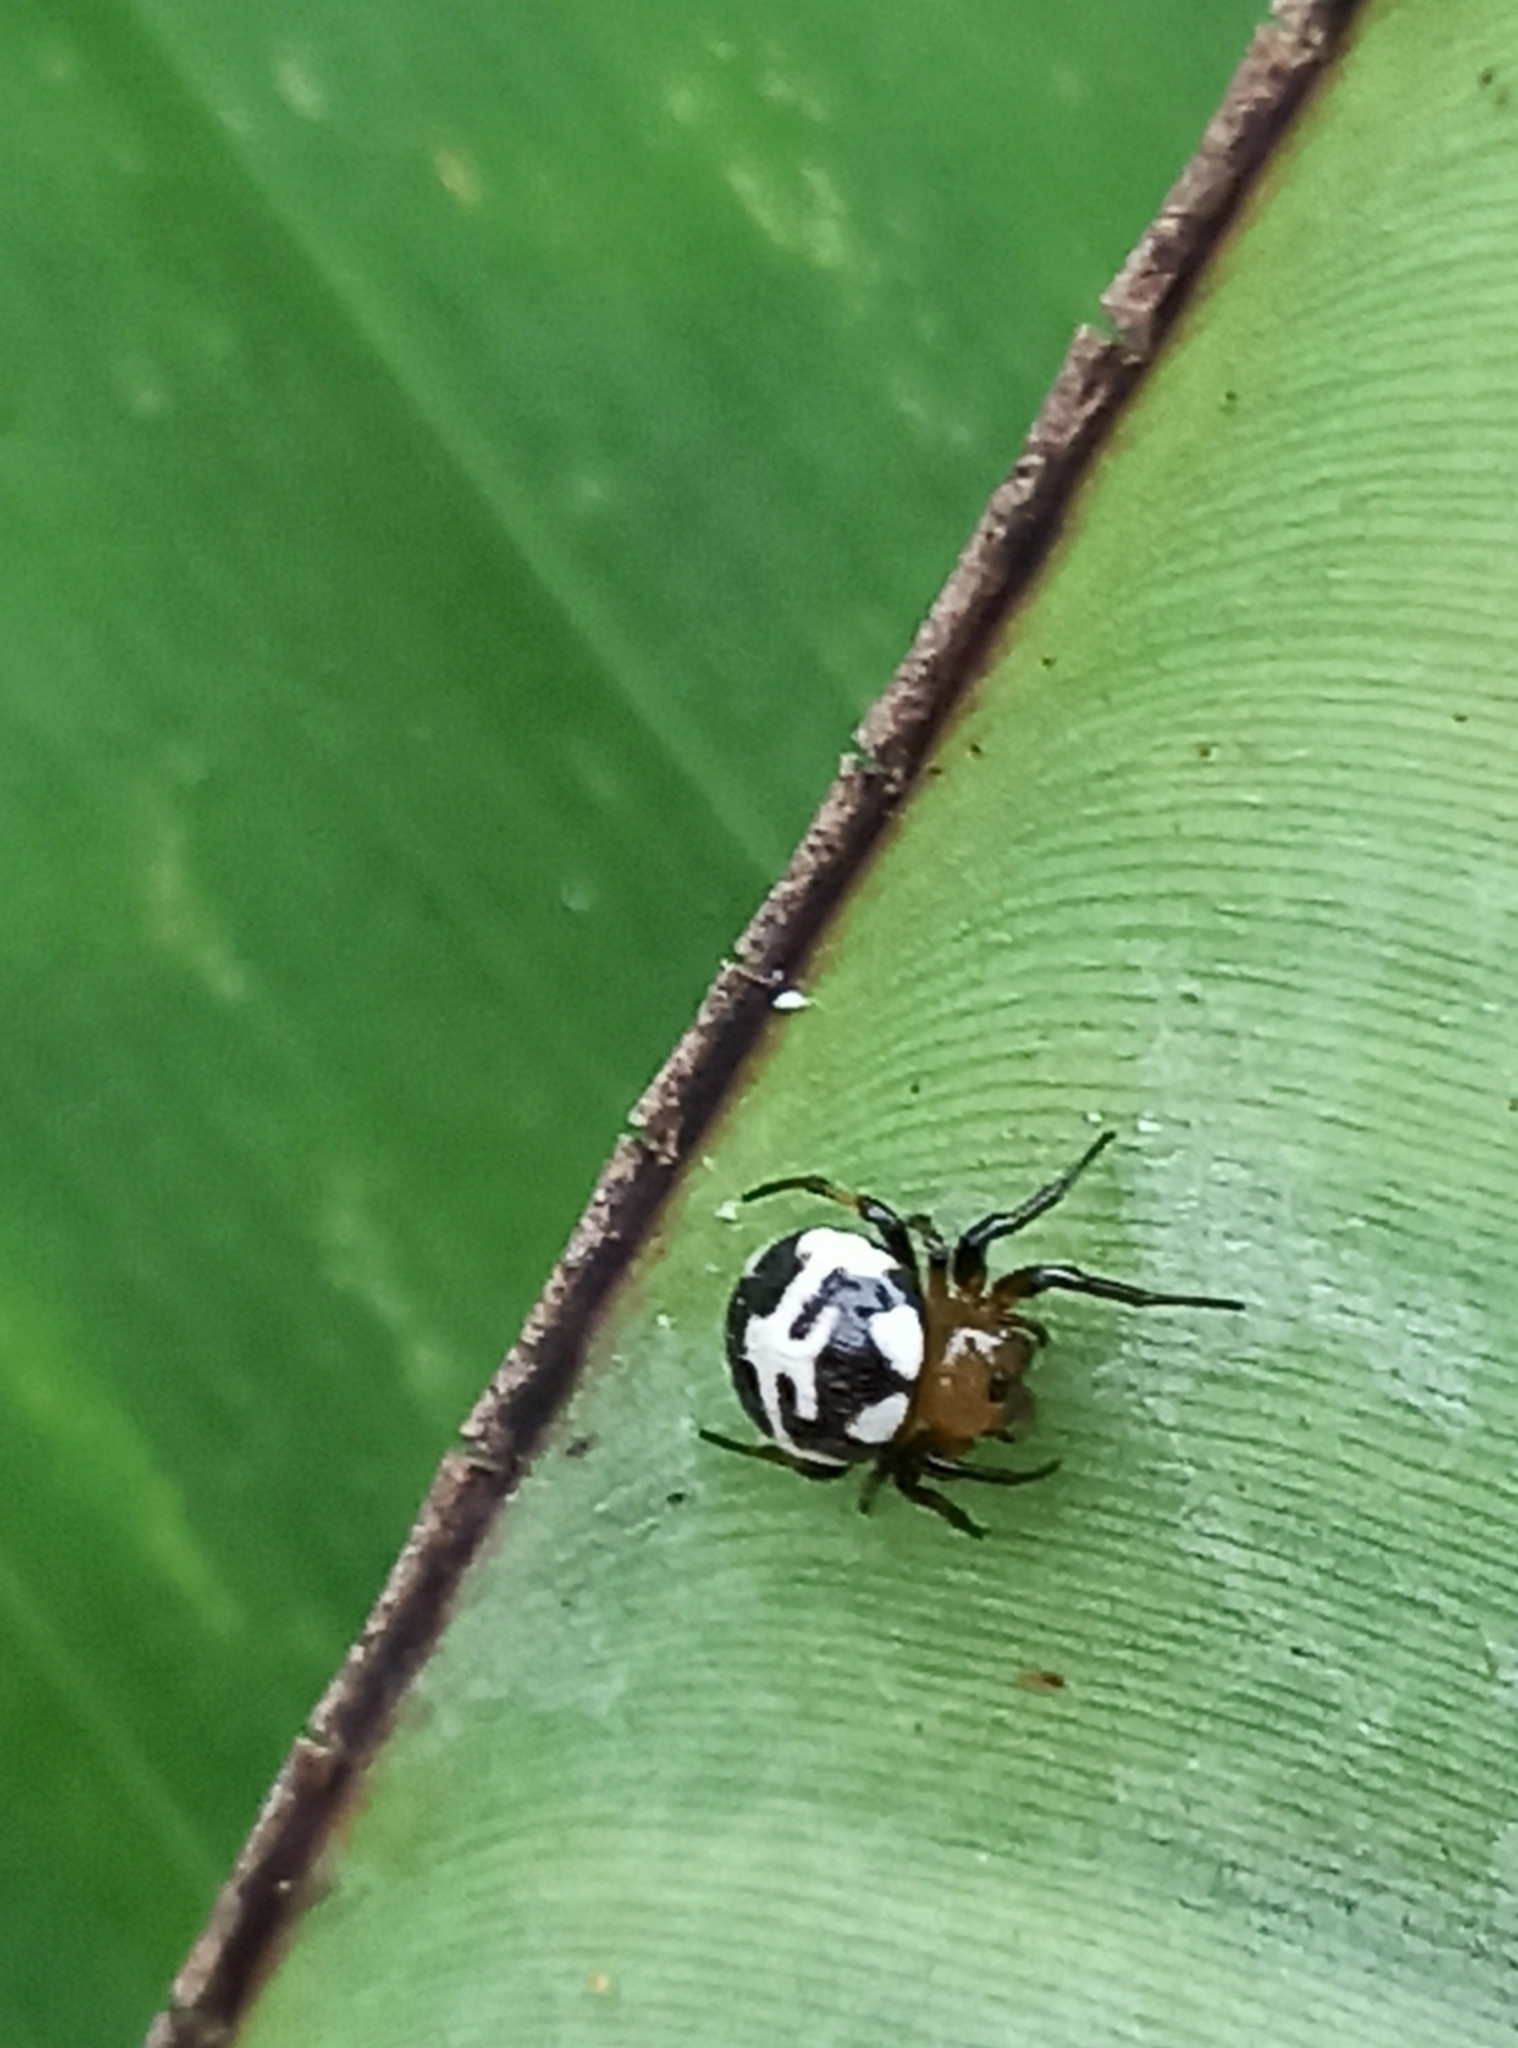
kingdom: Animalia
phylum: Arthropoda
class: Arachnida
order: Araneae
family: Araneidae
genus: Anepsion
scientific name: Anepsion maritatum
